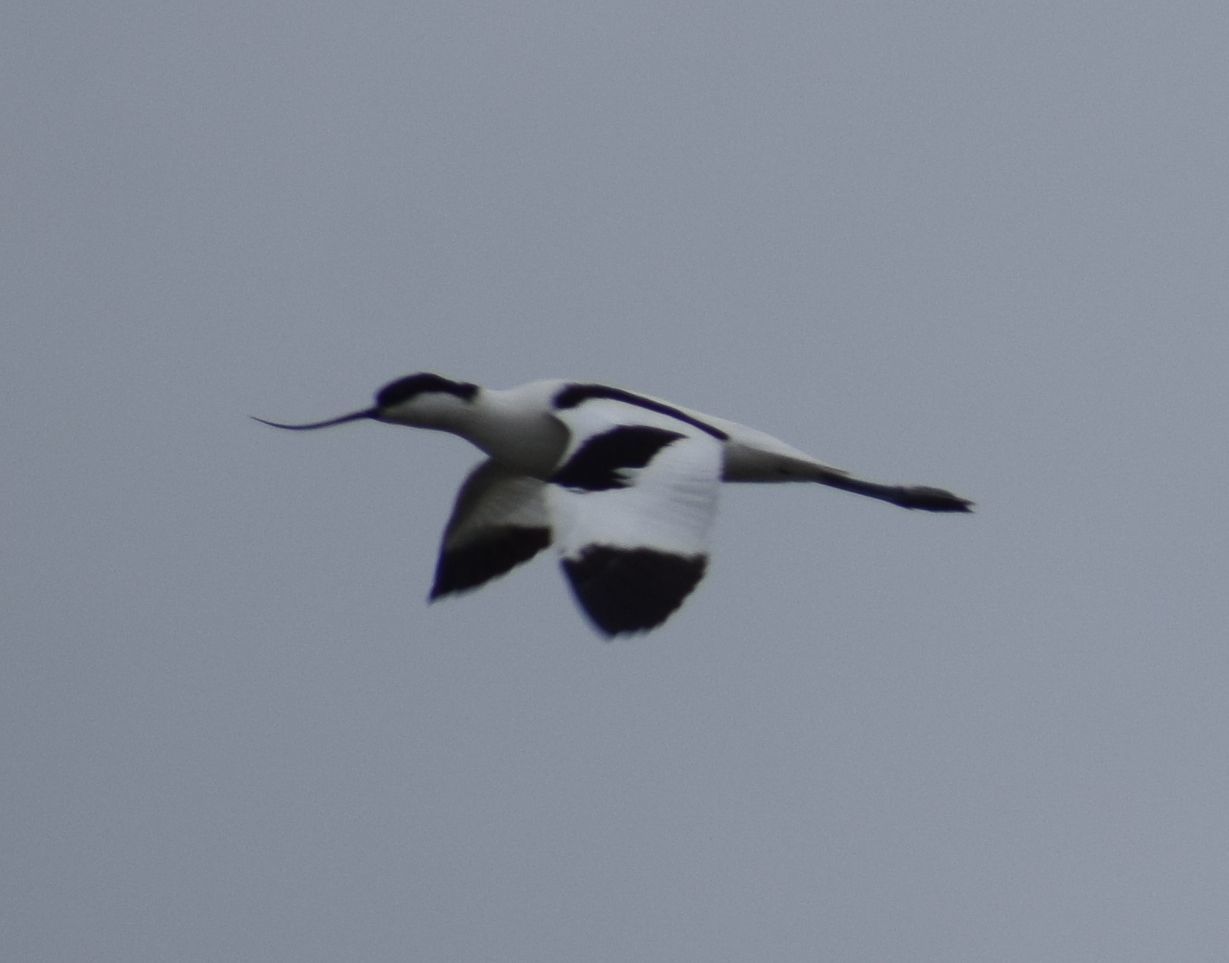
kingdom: Animalia
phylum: Chordata
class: Aves
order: Charadriiformes
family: Recurvirostridae
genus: Recurvirostra
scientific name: Recurvirostra avosetta
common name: Pied avocet
